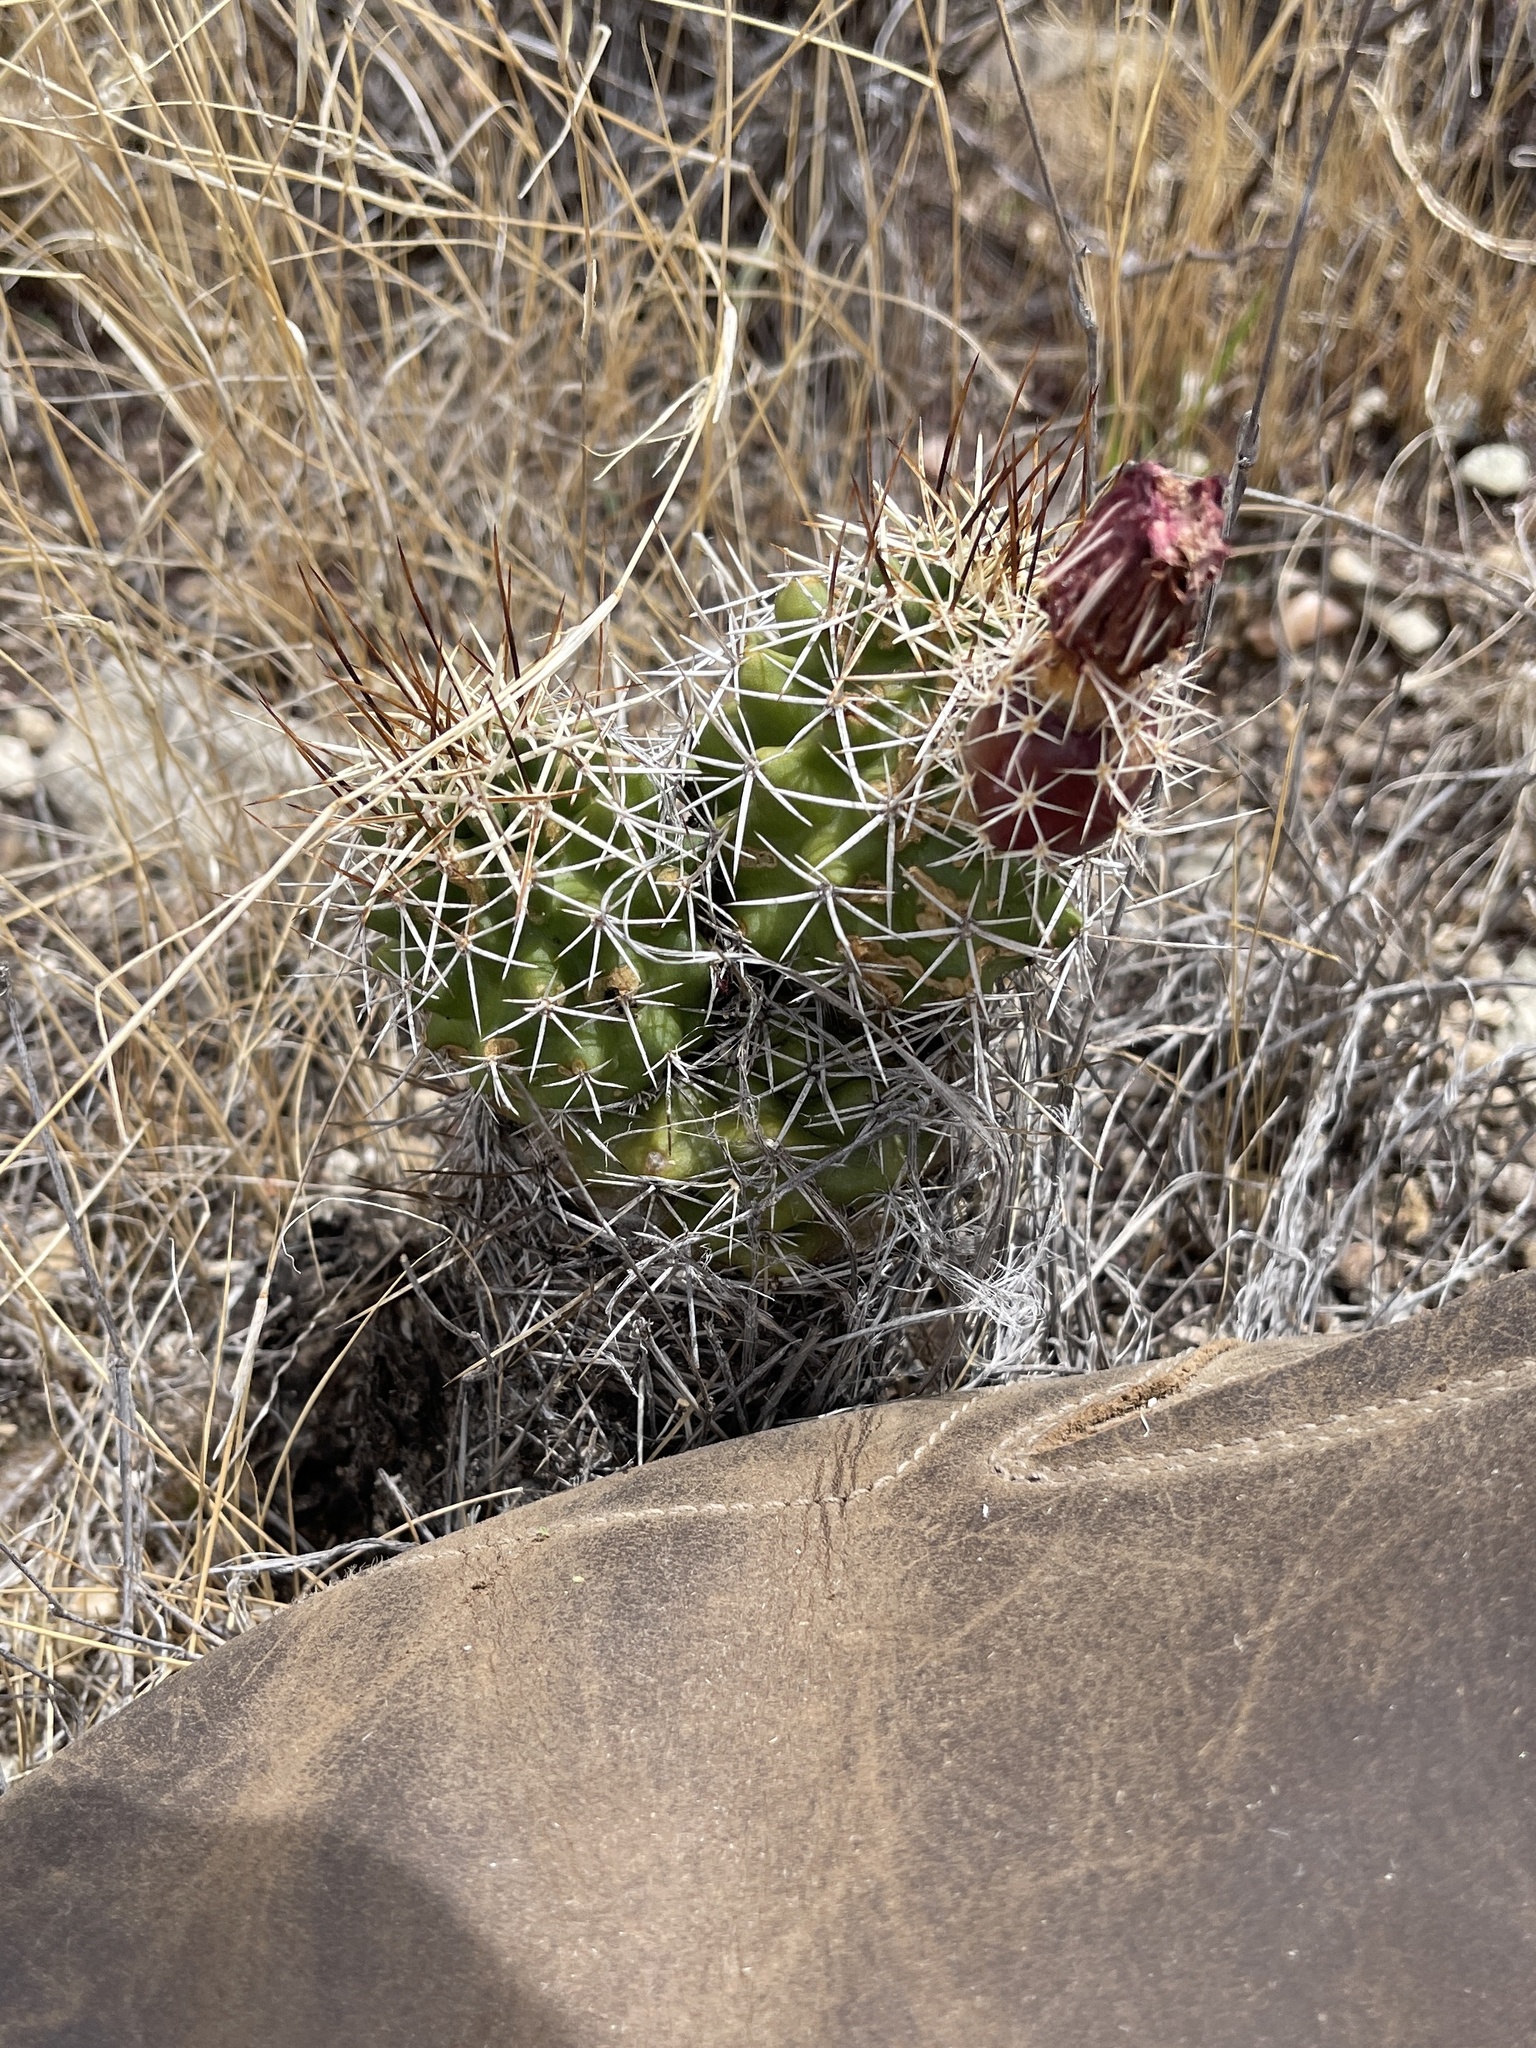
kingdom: Plantae
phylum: Tracheophyta
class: Magnoliopsida
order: Caryophyllales
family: Cactaceae
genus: Echinocereus
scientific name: Echinocereus fendleri
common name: Fendler's hedgehog cactus
